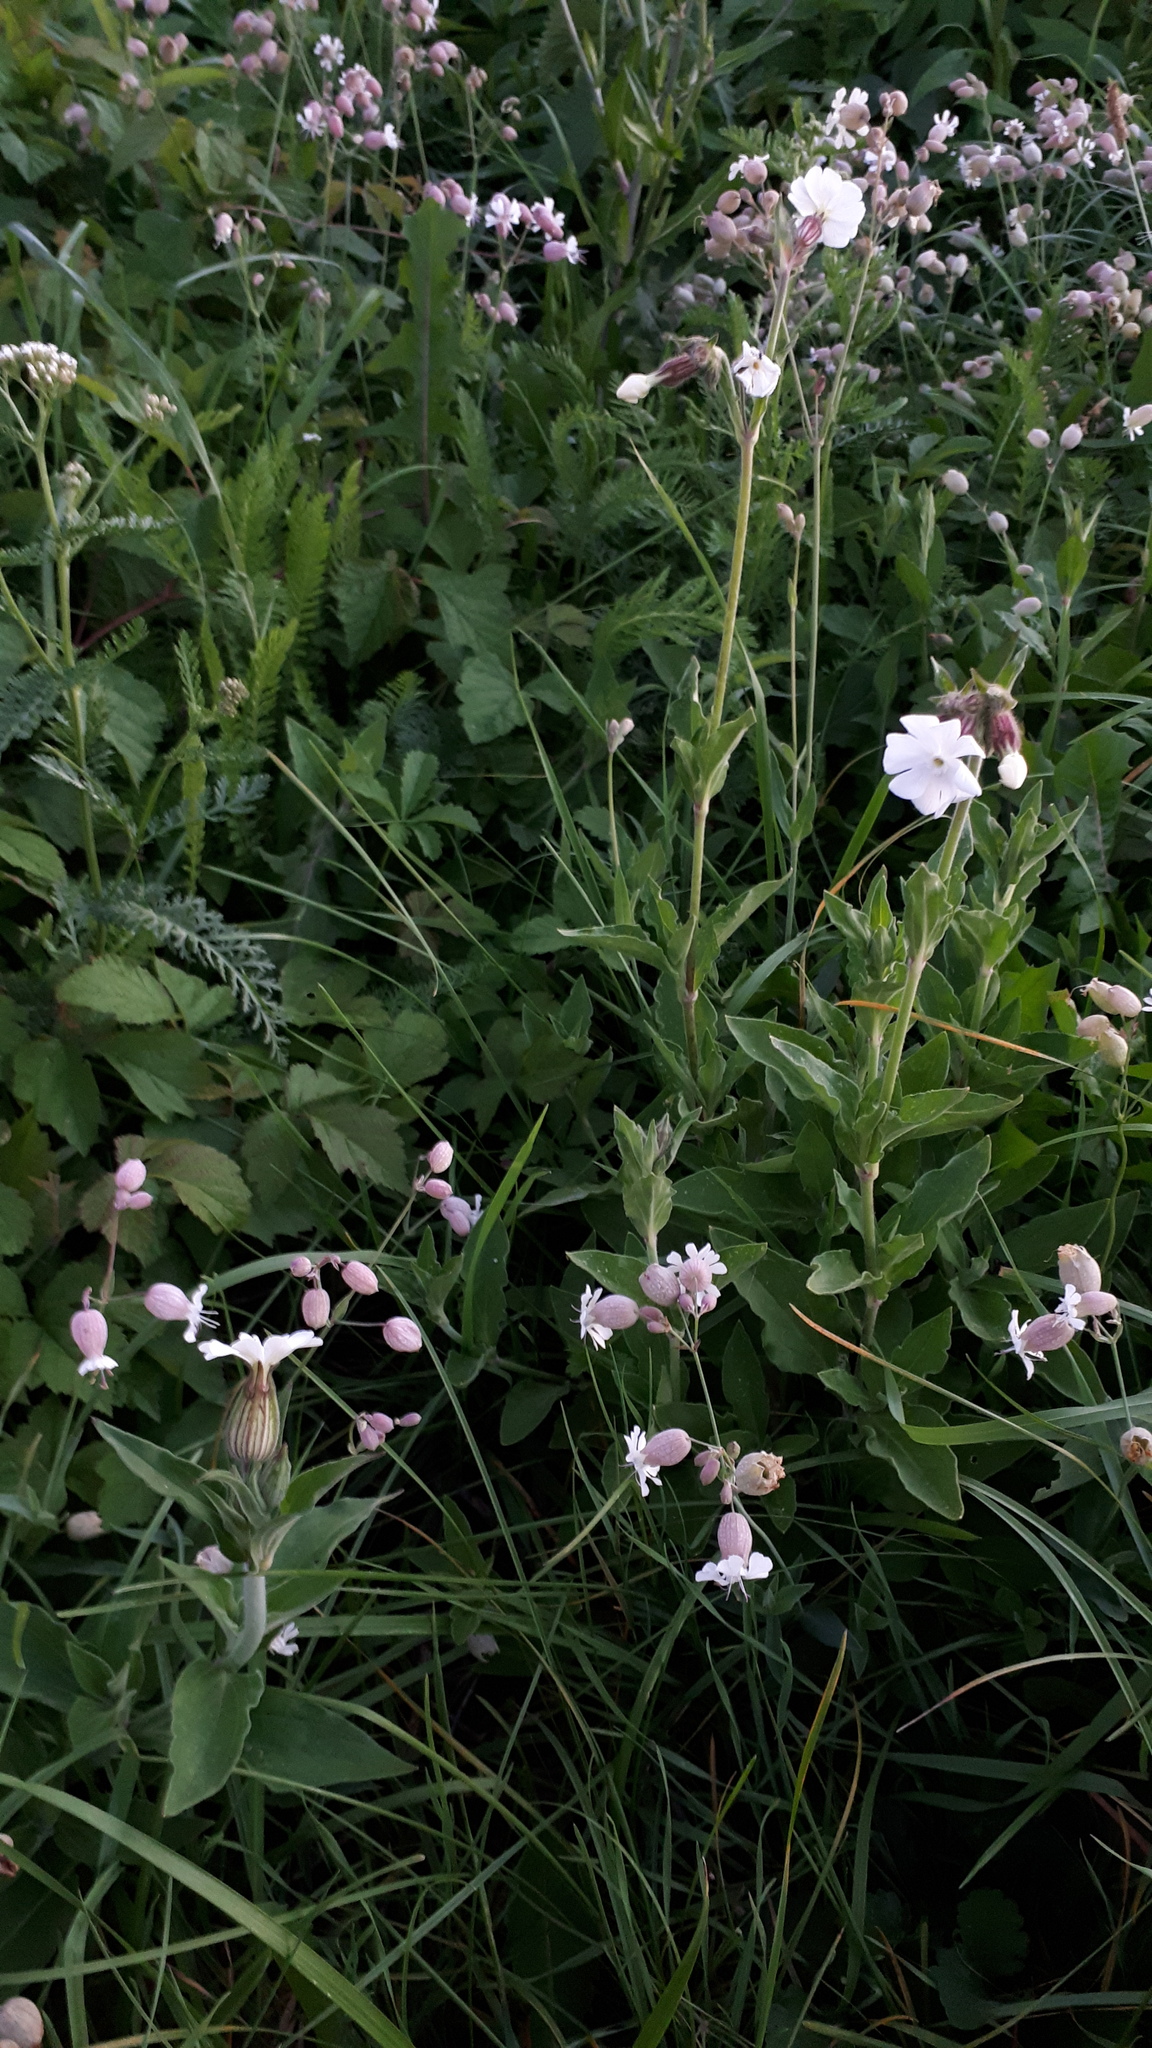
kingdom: Plantae
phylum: Tracheophyta
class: Magnoliopsida
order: Caryophyllales
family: Caryophyllaceae
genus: Silene
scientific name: Silene latifolia
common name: White campion
